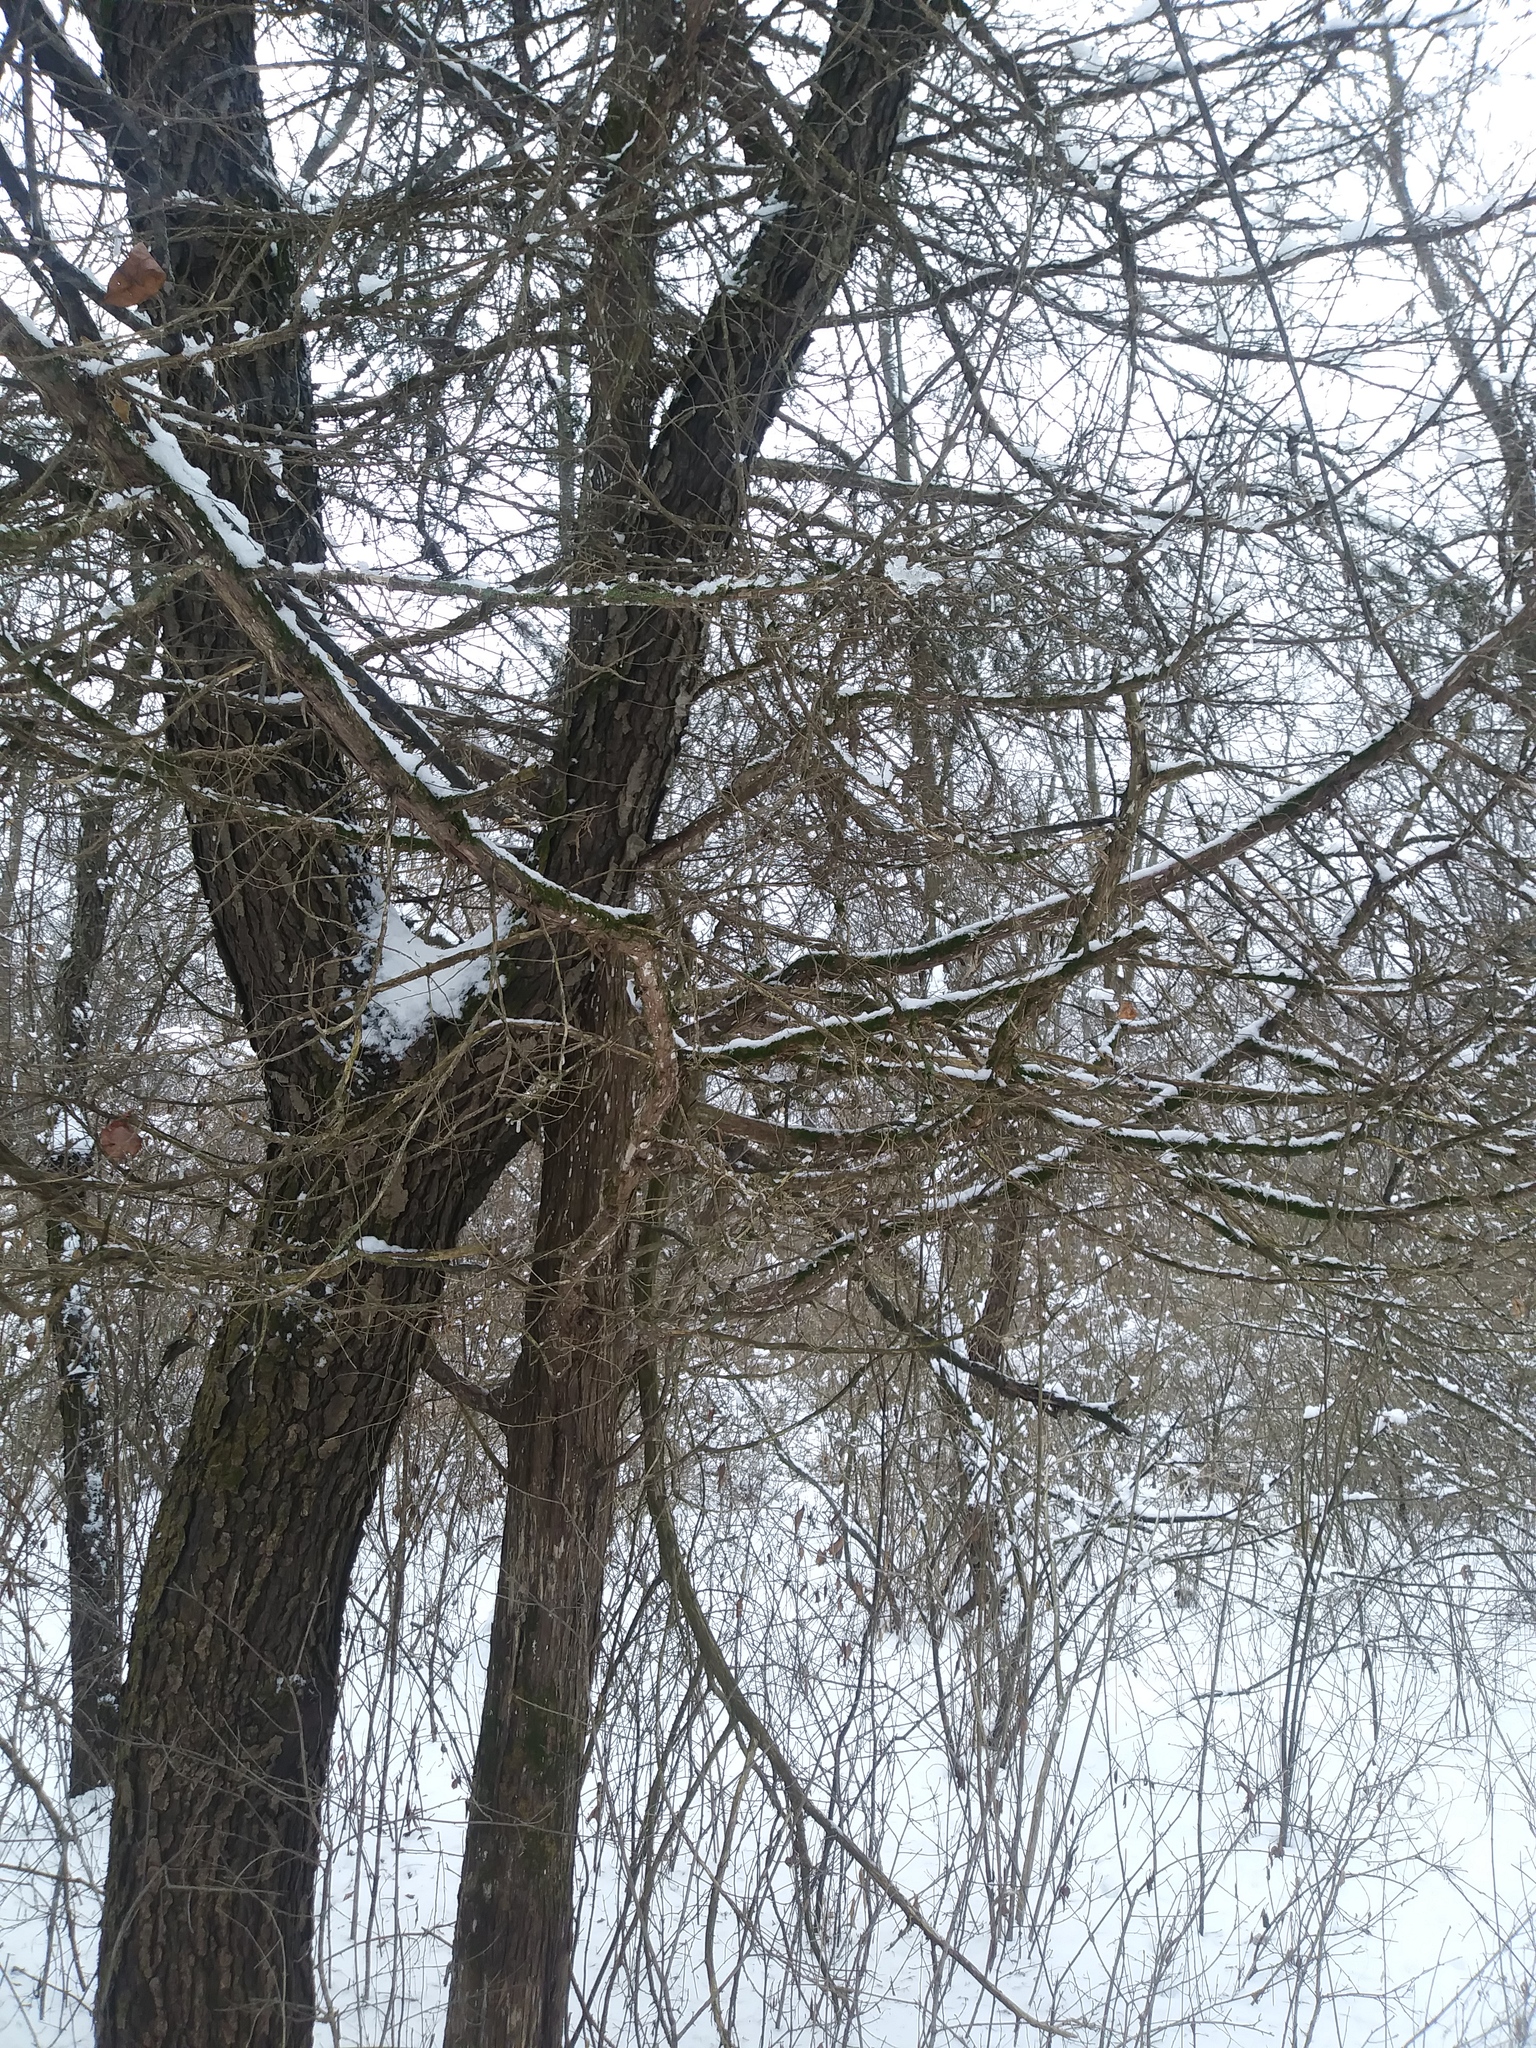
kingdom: Plantae
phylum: Tracheophyta
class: Pinopsida
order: Pinales
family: Cupressaceae
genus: Juniperus
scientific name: Juniperus virginiana
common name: Red juniper
